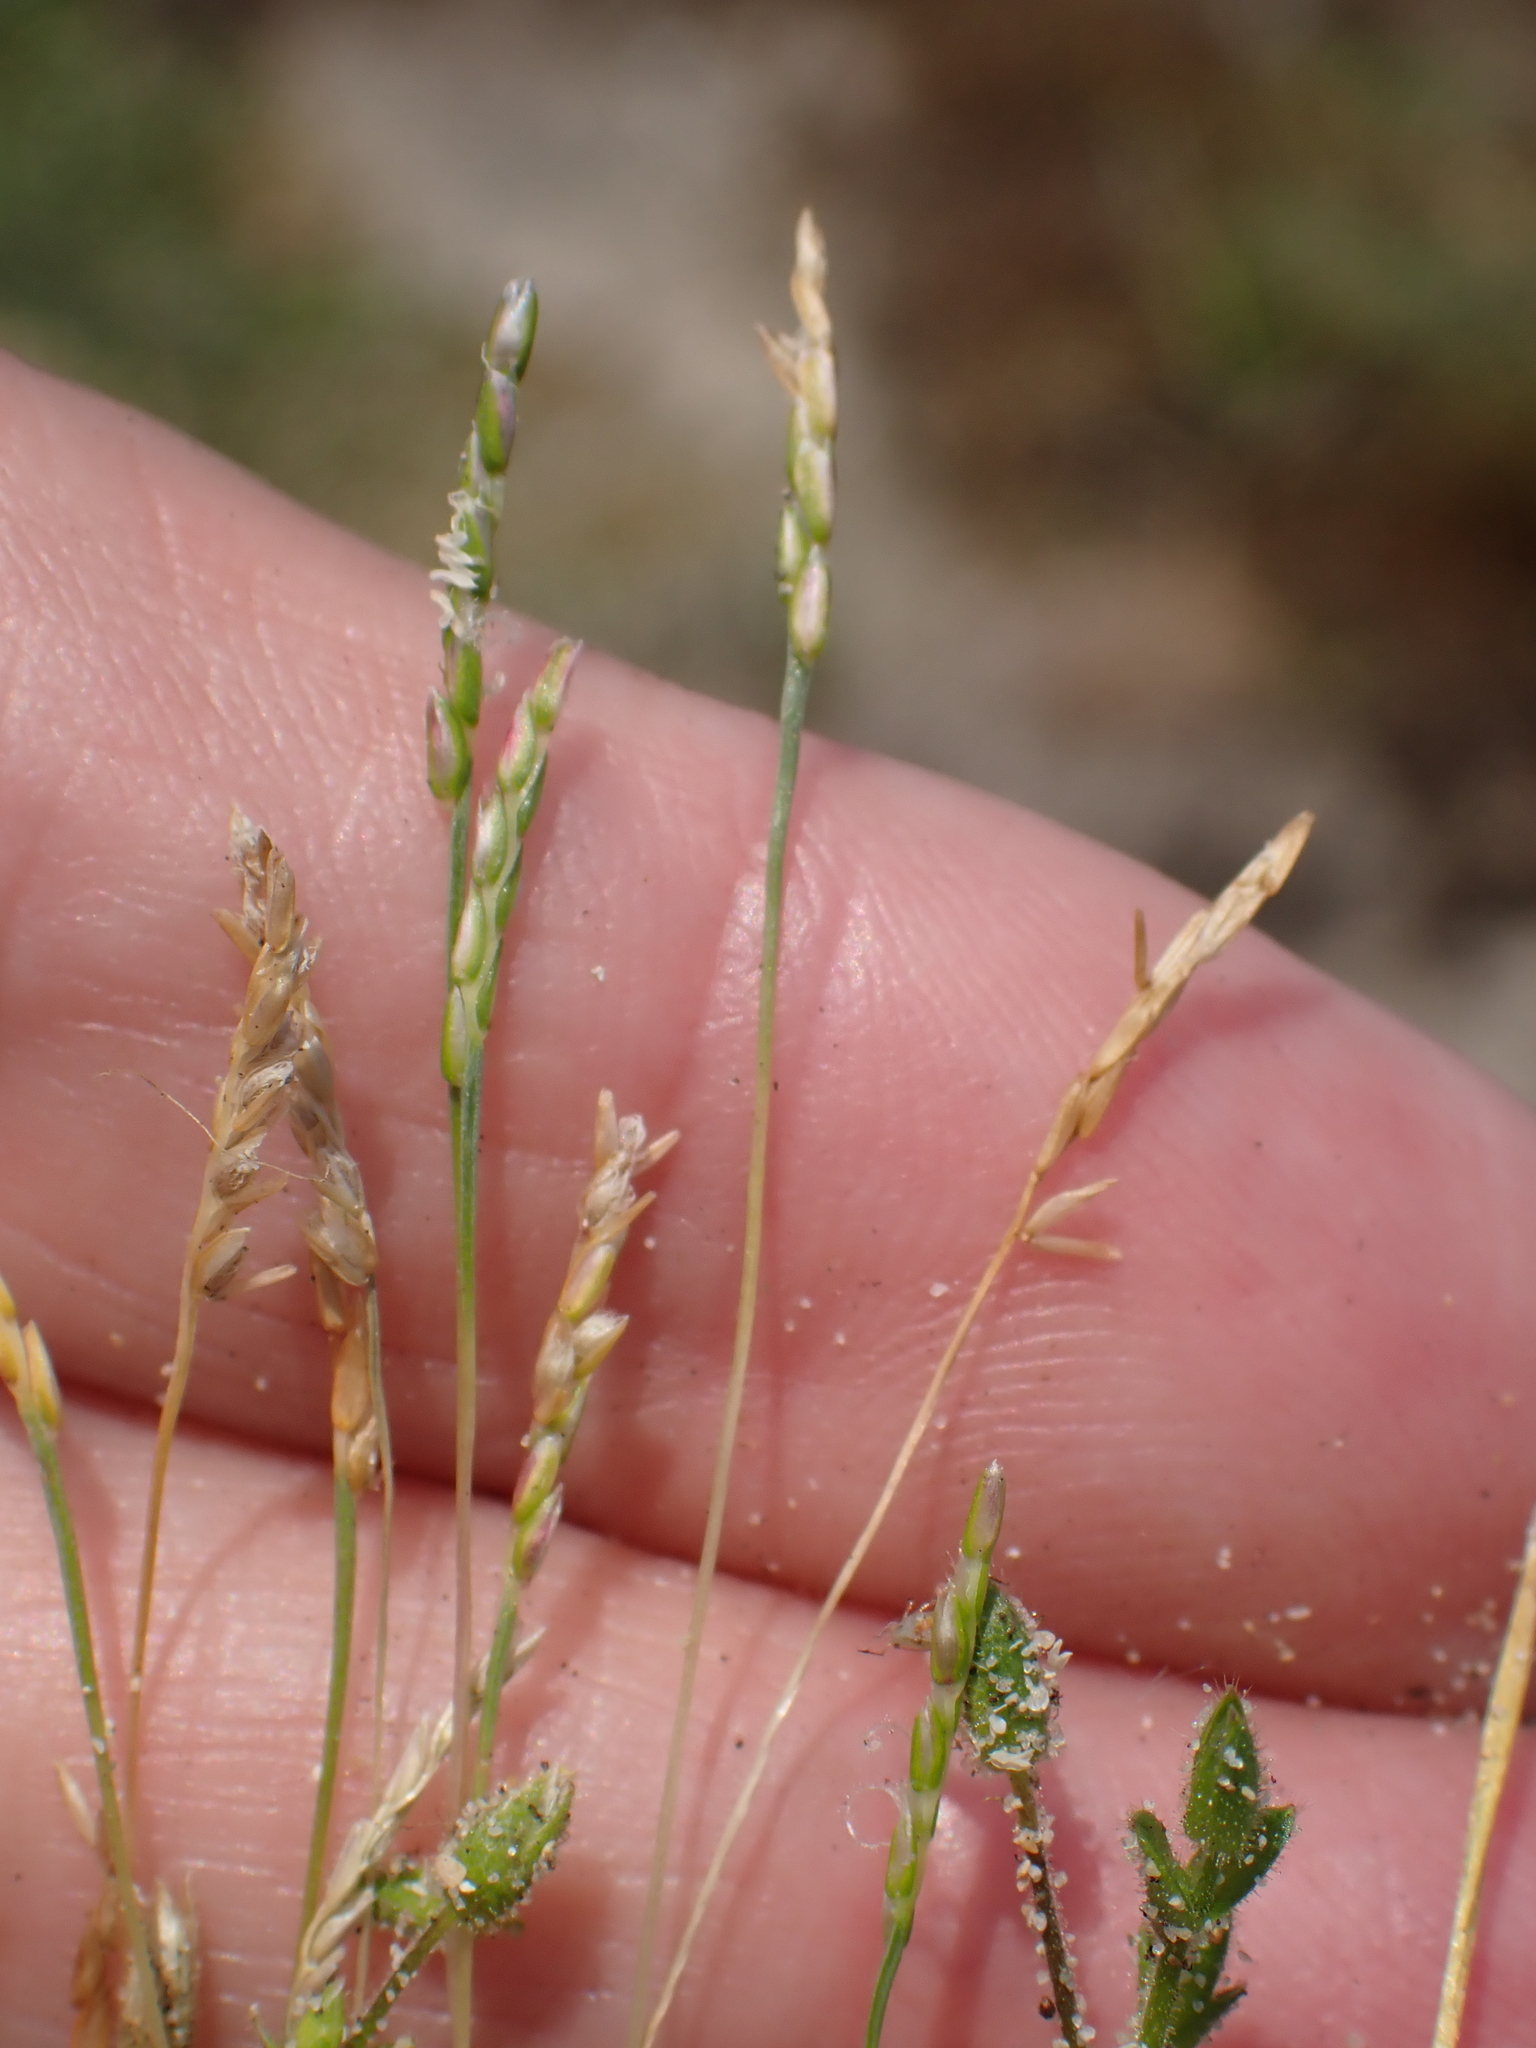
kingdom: Plantae
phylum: Tracheophyta
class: Liliopsida
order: Poales
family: Poaceae
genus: Mibora
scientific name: Mibora minima
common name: Early sand-grass
